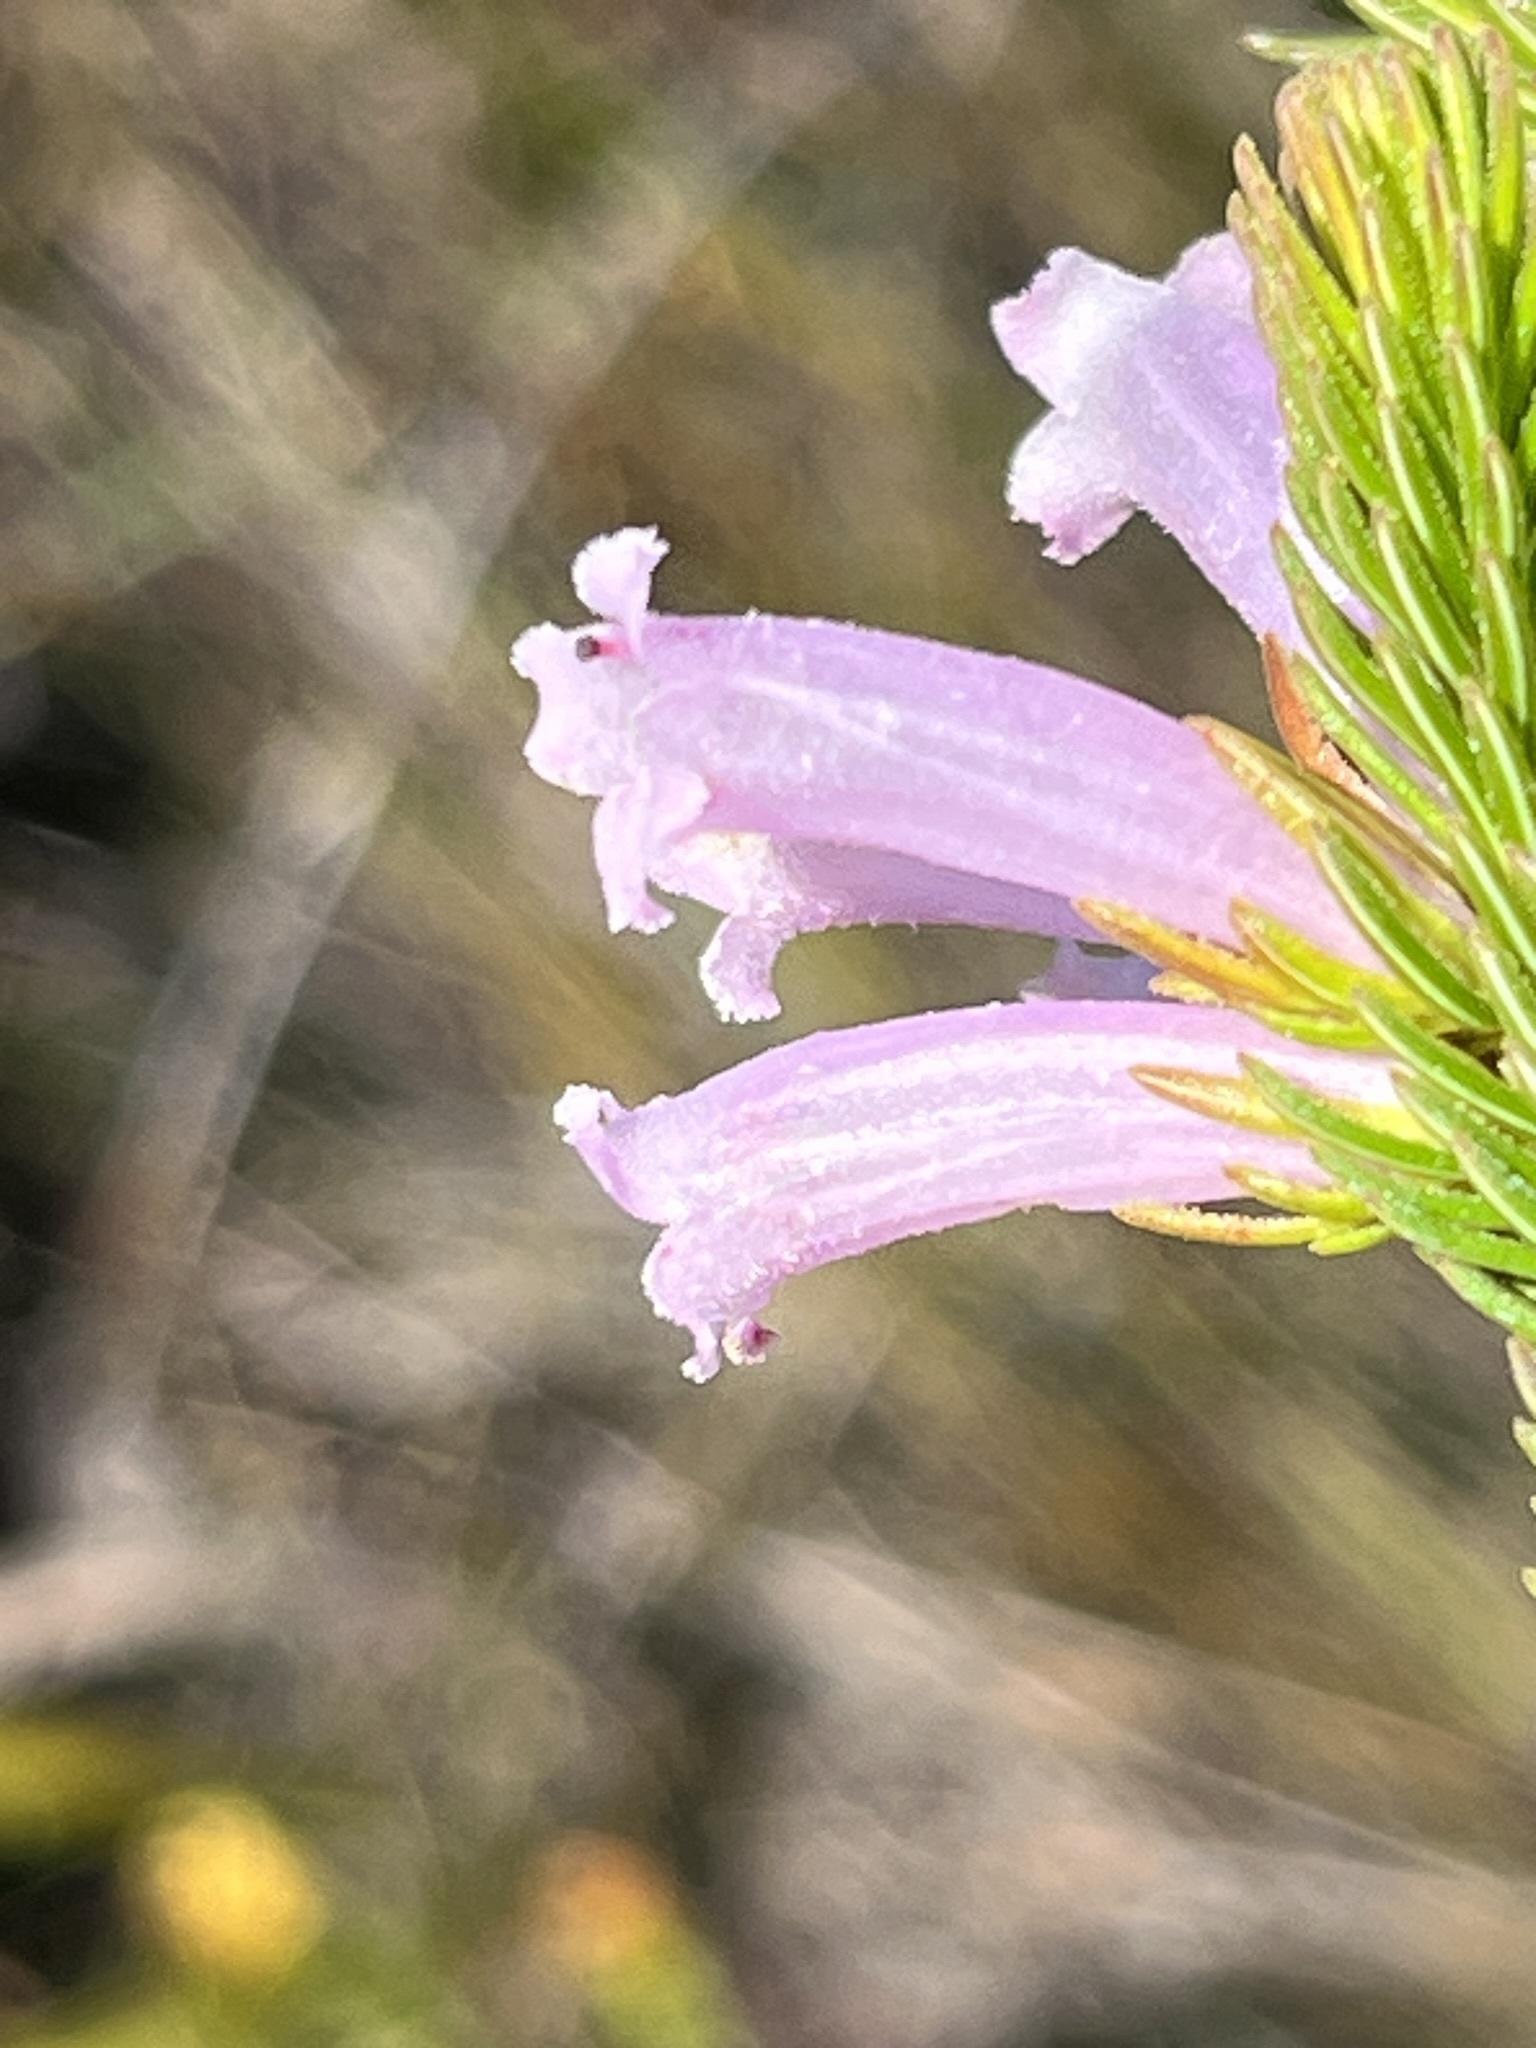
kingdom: Plantae
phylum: Tracheophyta
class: Magnoliopsida
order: Ericales
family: Ericaceae
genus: Erica
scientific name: Erica viscaria
